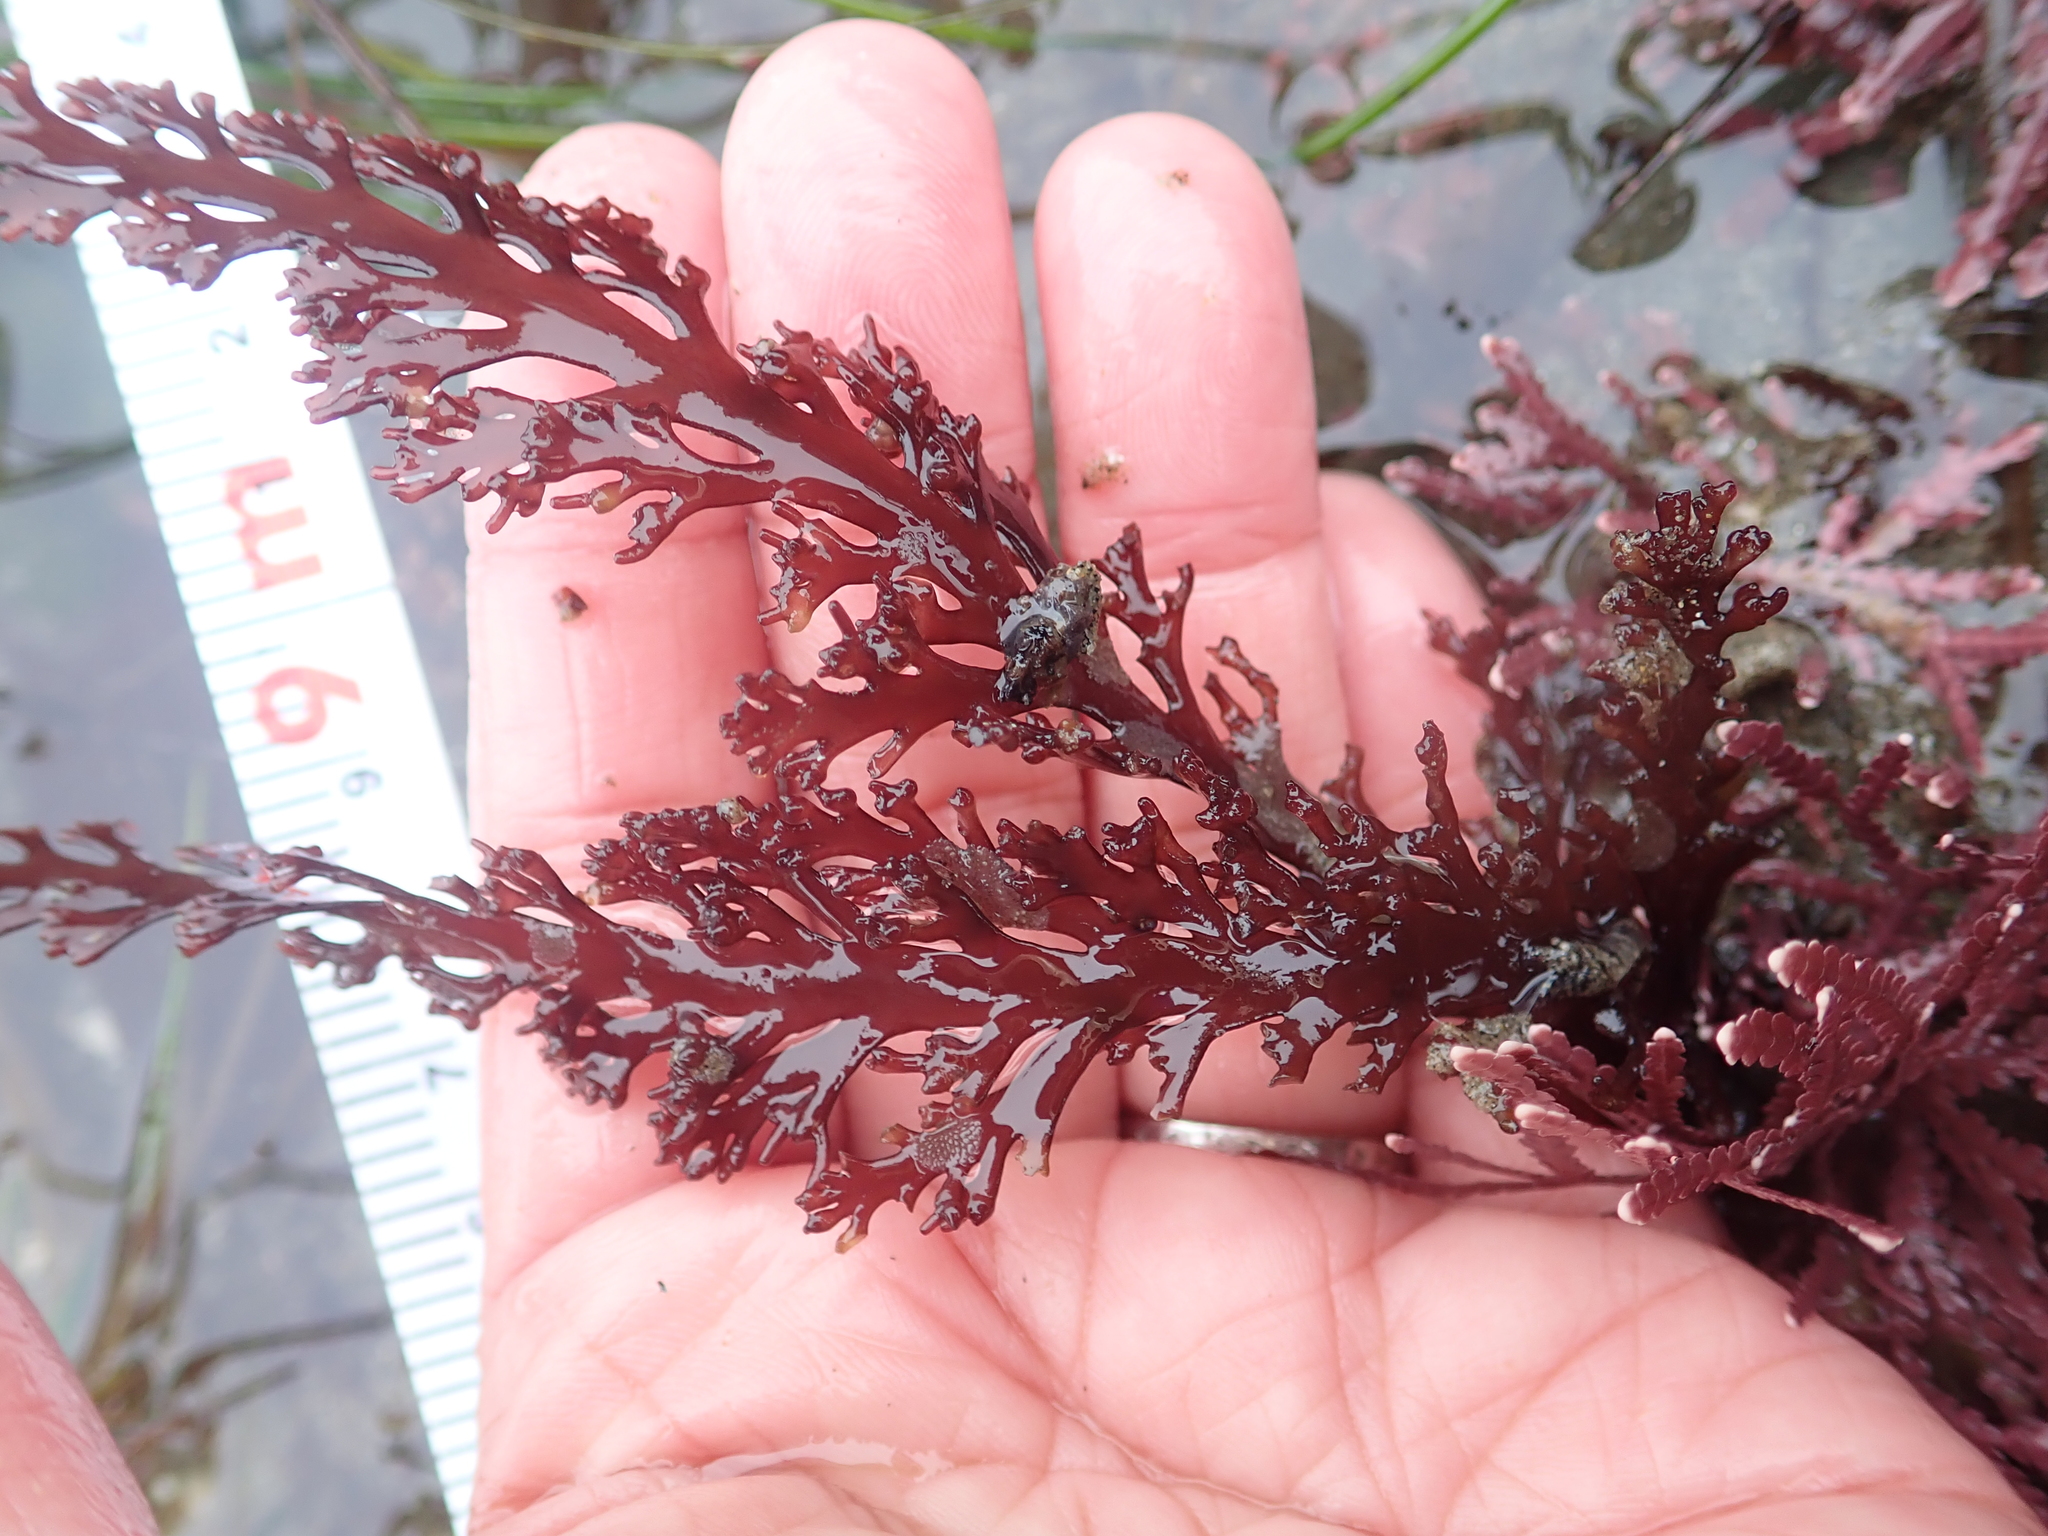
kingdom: Plantae
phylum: Rhodophyta
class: Florideophyceae
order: Ceramiales
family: Rhodomelaceae
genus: Osmundea
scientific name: Osmundea spectabilis
